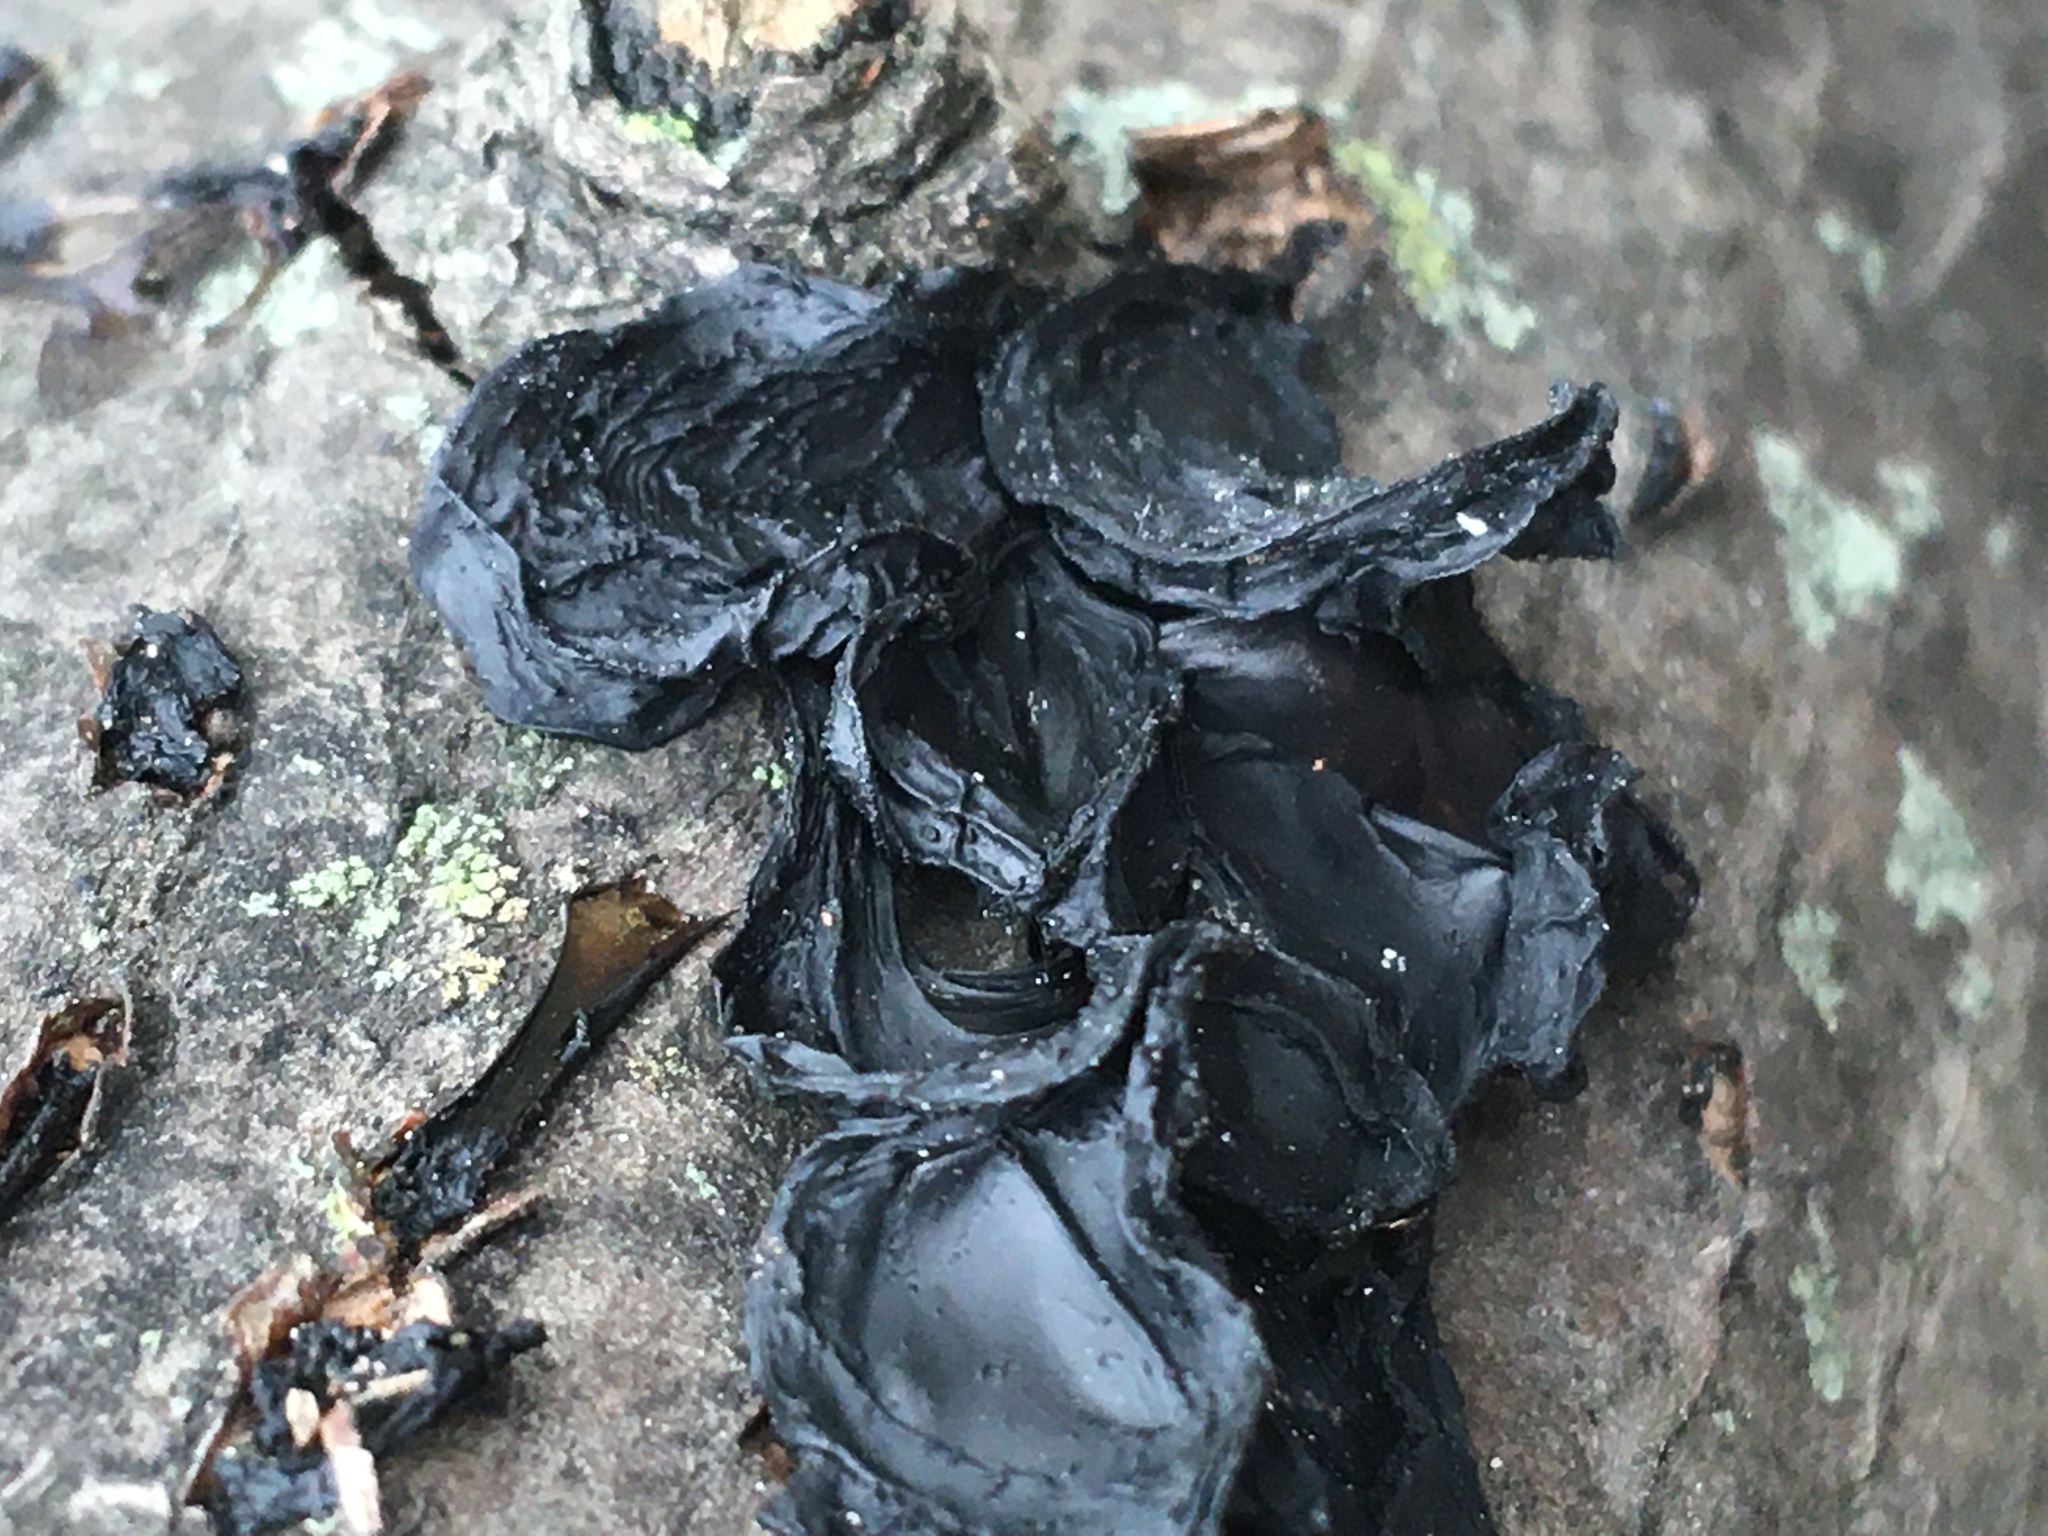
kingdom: Fungi
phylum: Basidiomycota
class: Agaricomycetes
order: Auriculariales
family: Auriculariaceae
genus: Exidia
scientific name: Exidia glandulosa
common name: Witches' butter
